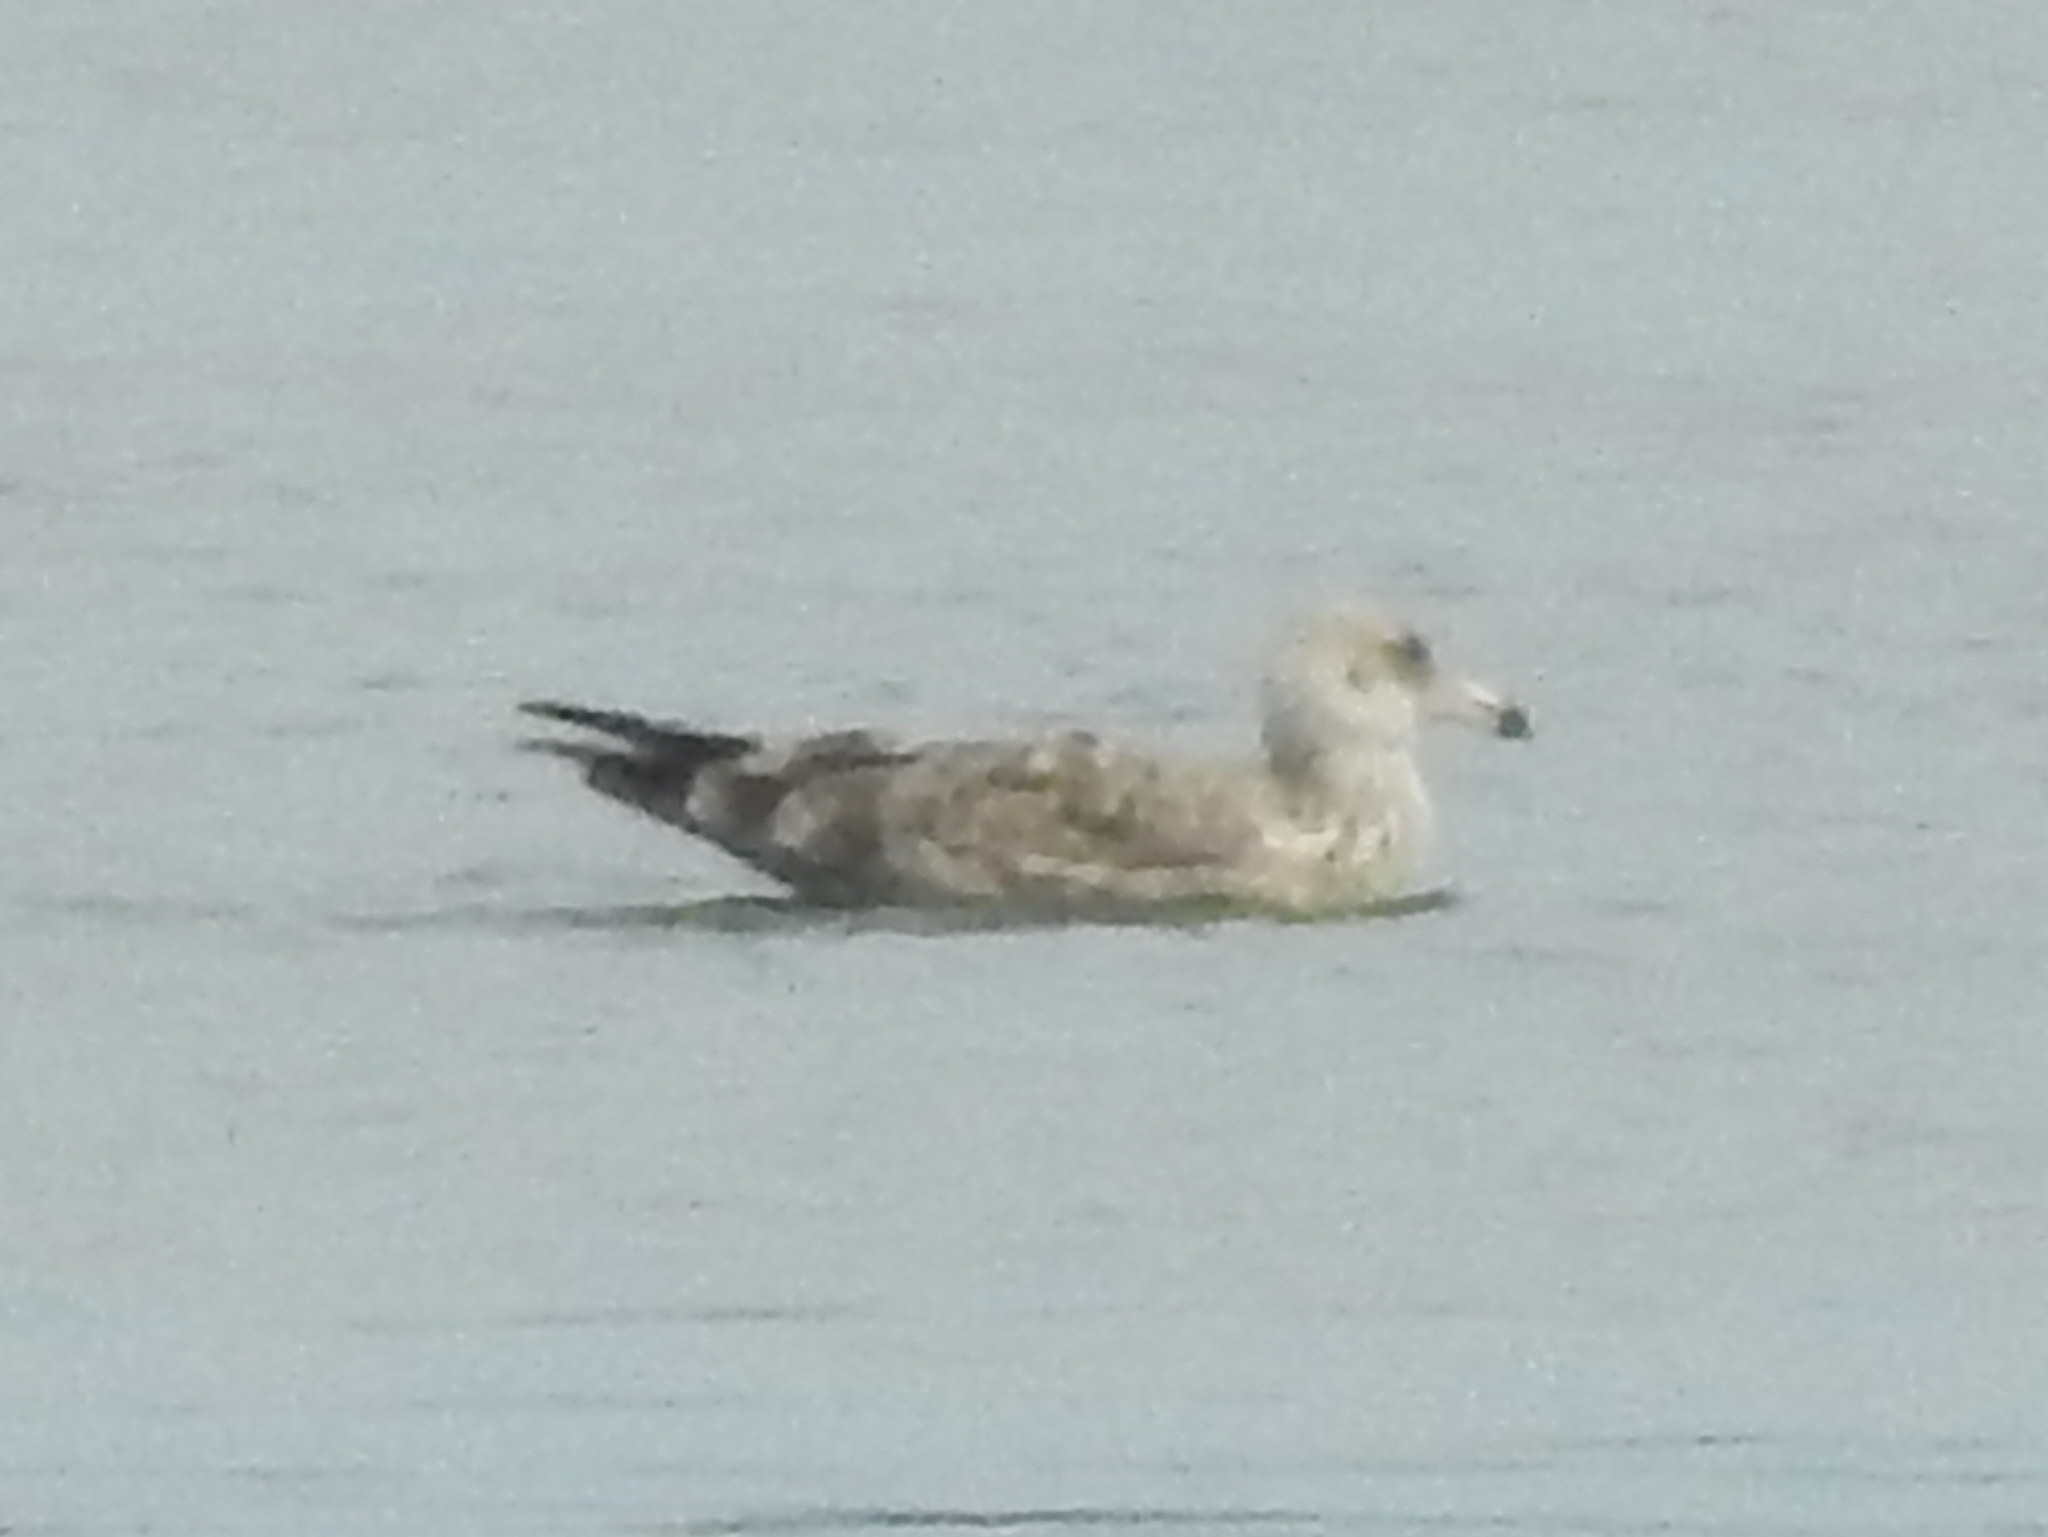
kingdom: Animalia
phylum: Chordata
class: Aves
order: Charadriiformes
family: Laridae
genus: Larus
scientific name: Larus argentatus
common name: Herring gull
